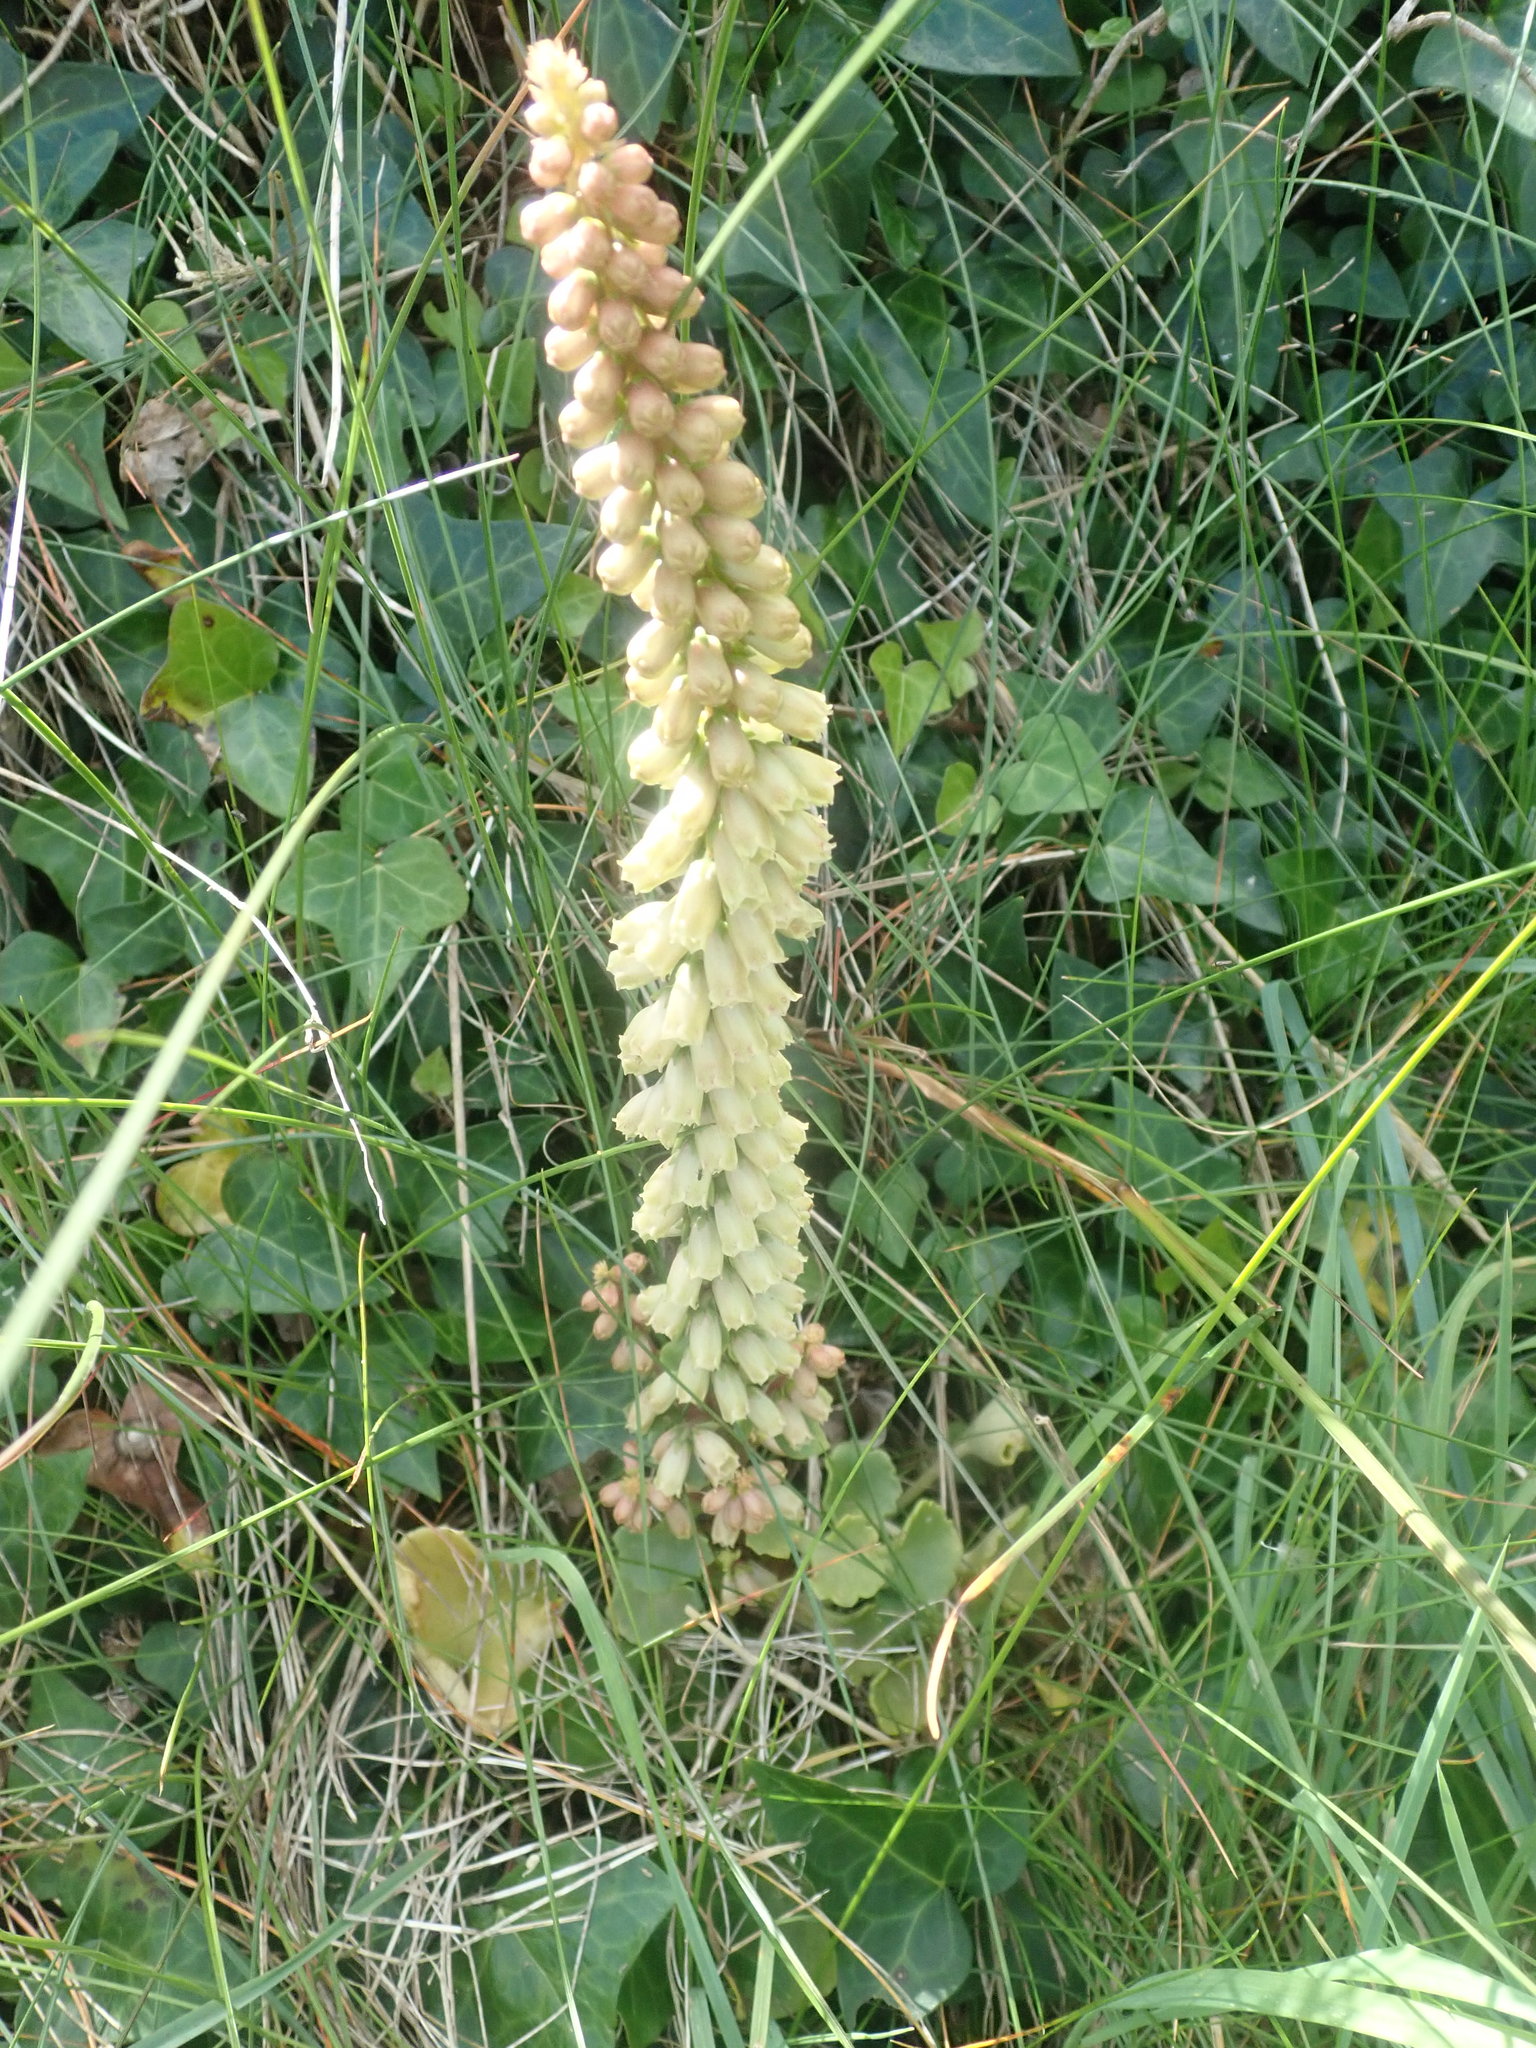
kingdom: Plantae
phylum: Tracheophyta
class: Magnoliopsida
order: Saxifragales
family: Crassulaceae
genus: Umbilicus
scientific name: Umbilicus rupestris
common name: Navelwort
